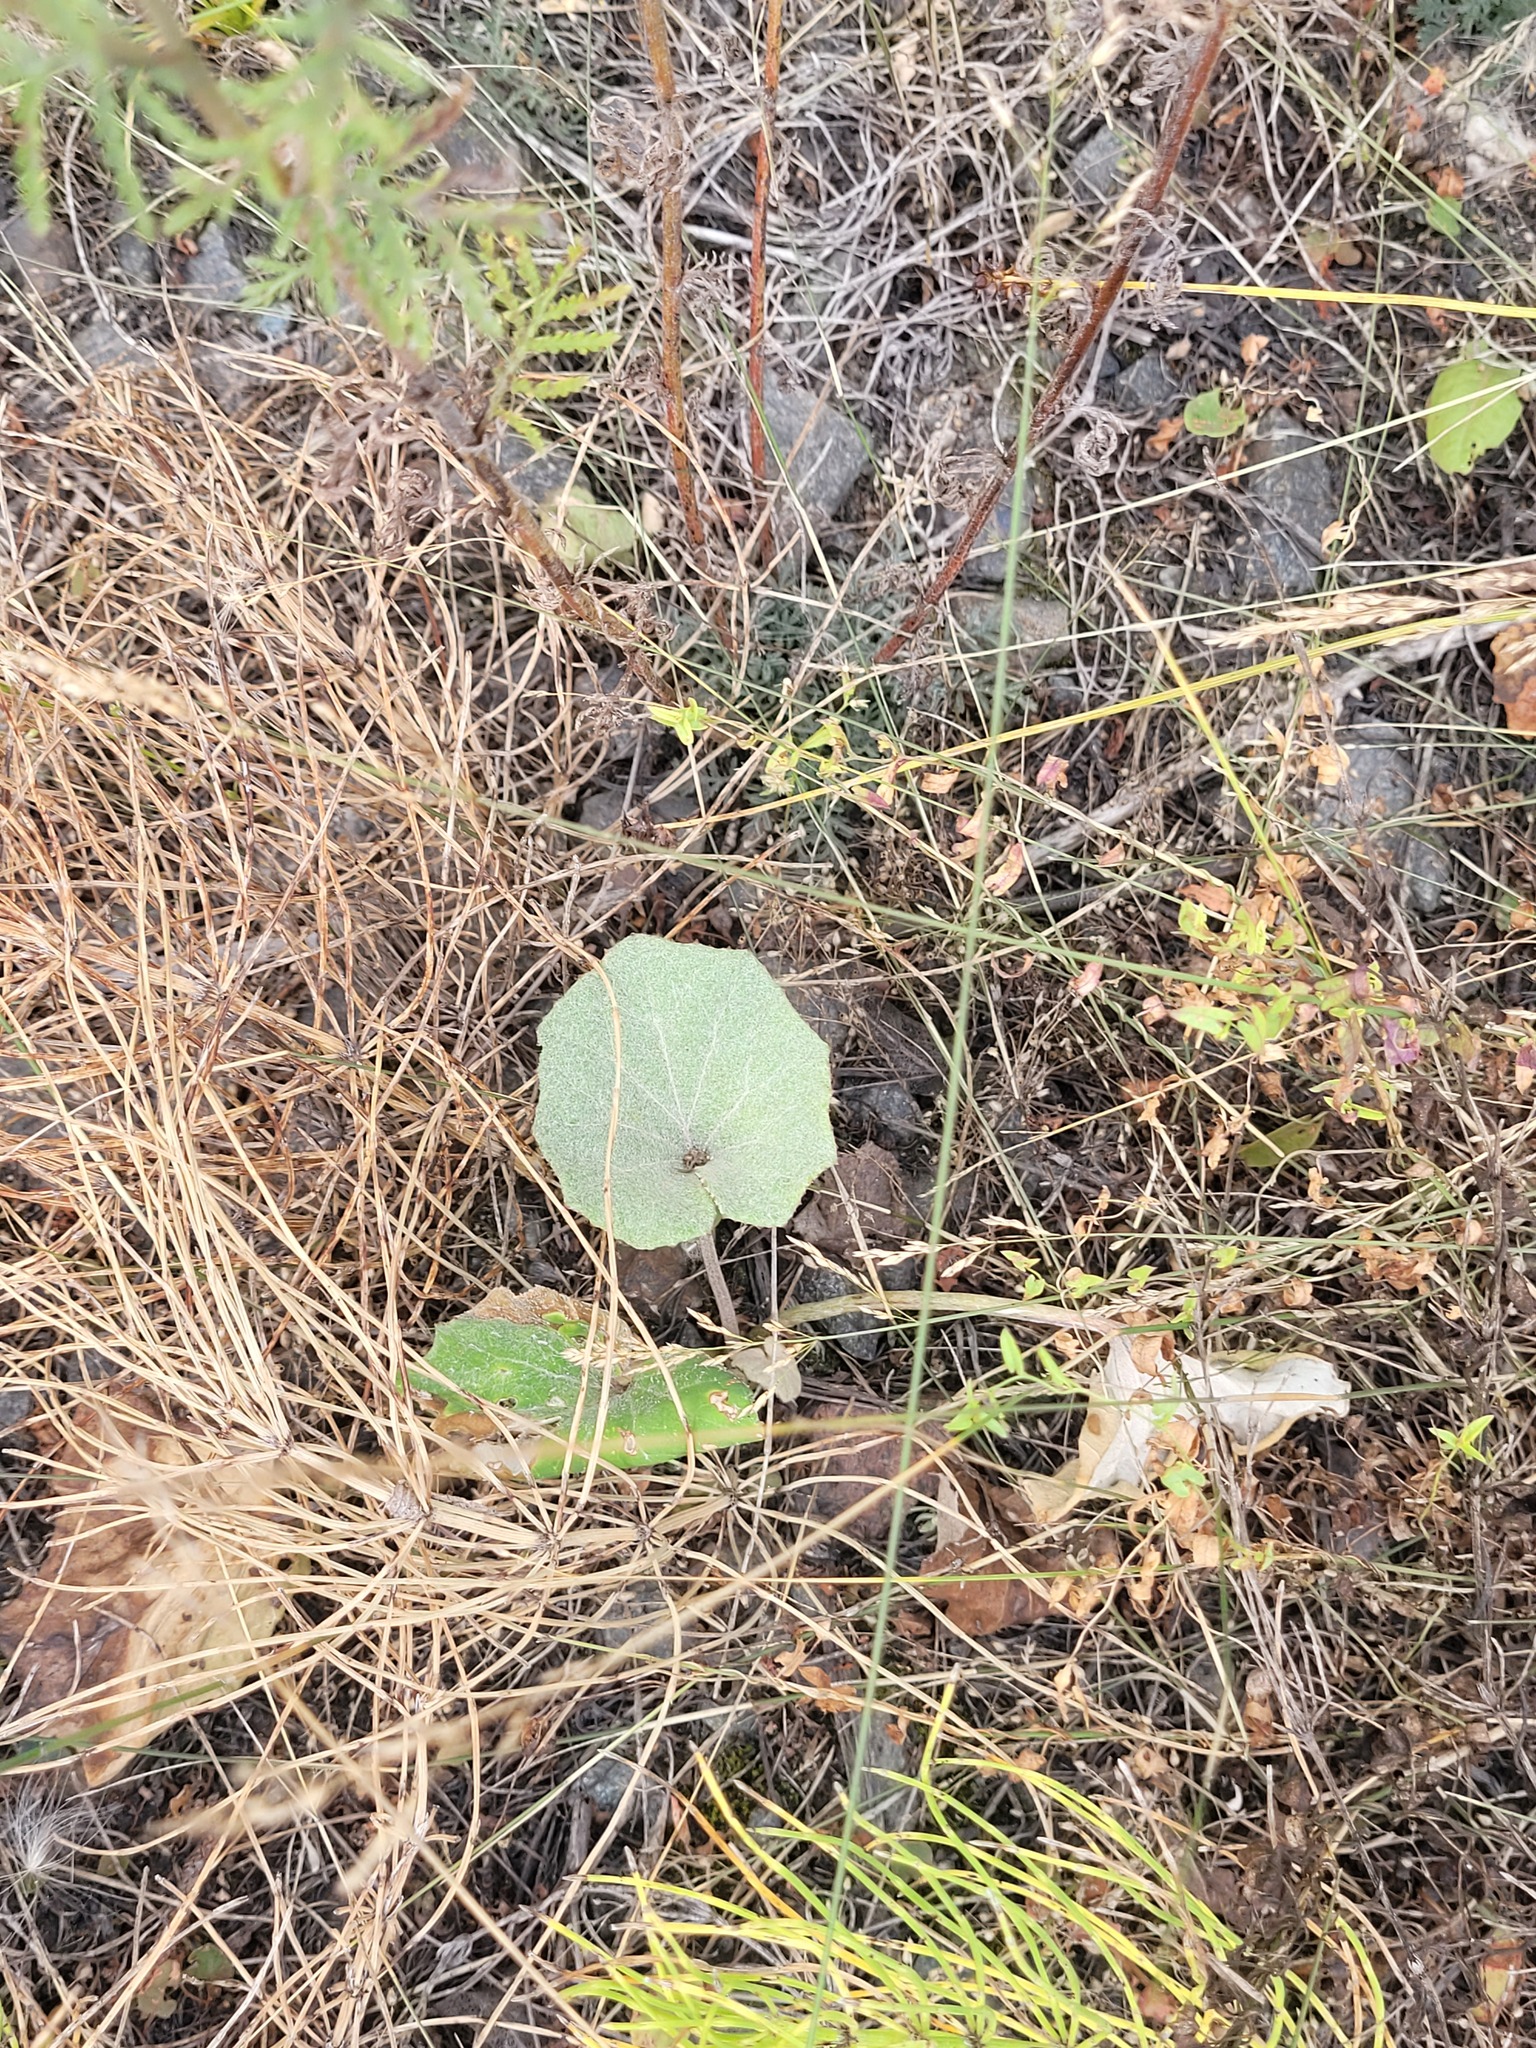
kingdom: Plantae
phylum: Tracheophyta
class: Magnoliopsida
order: Asterales
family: Asteraceae
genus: Tussilago
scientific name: Tussilago farfara
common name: Coltsfoot
